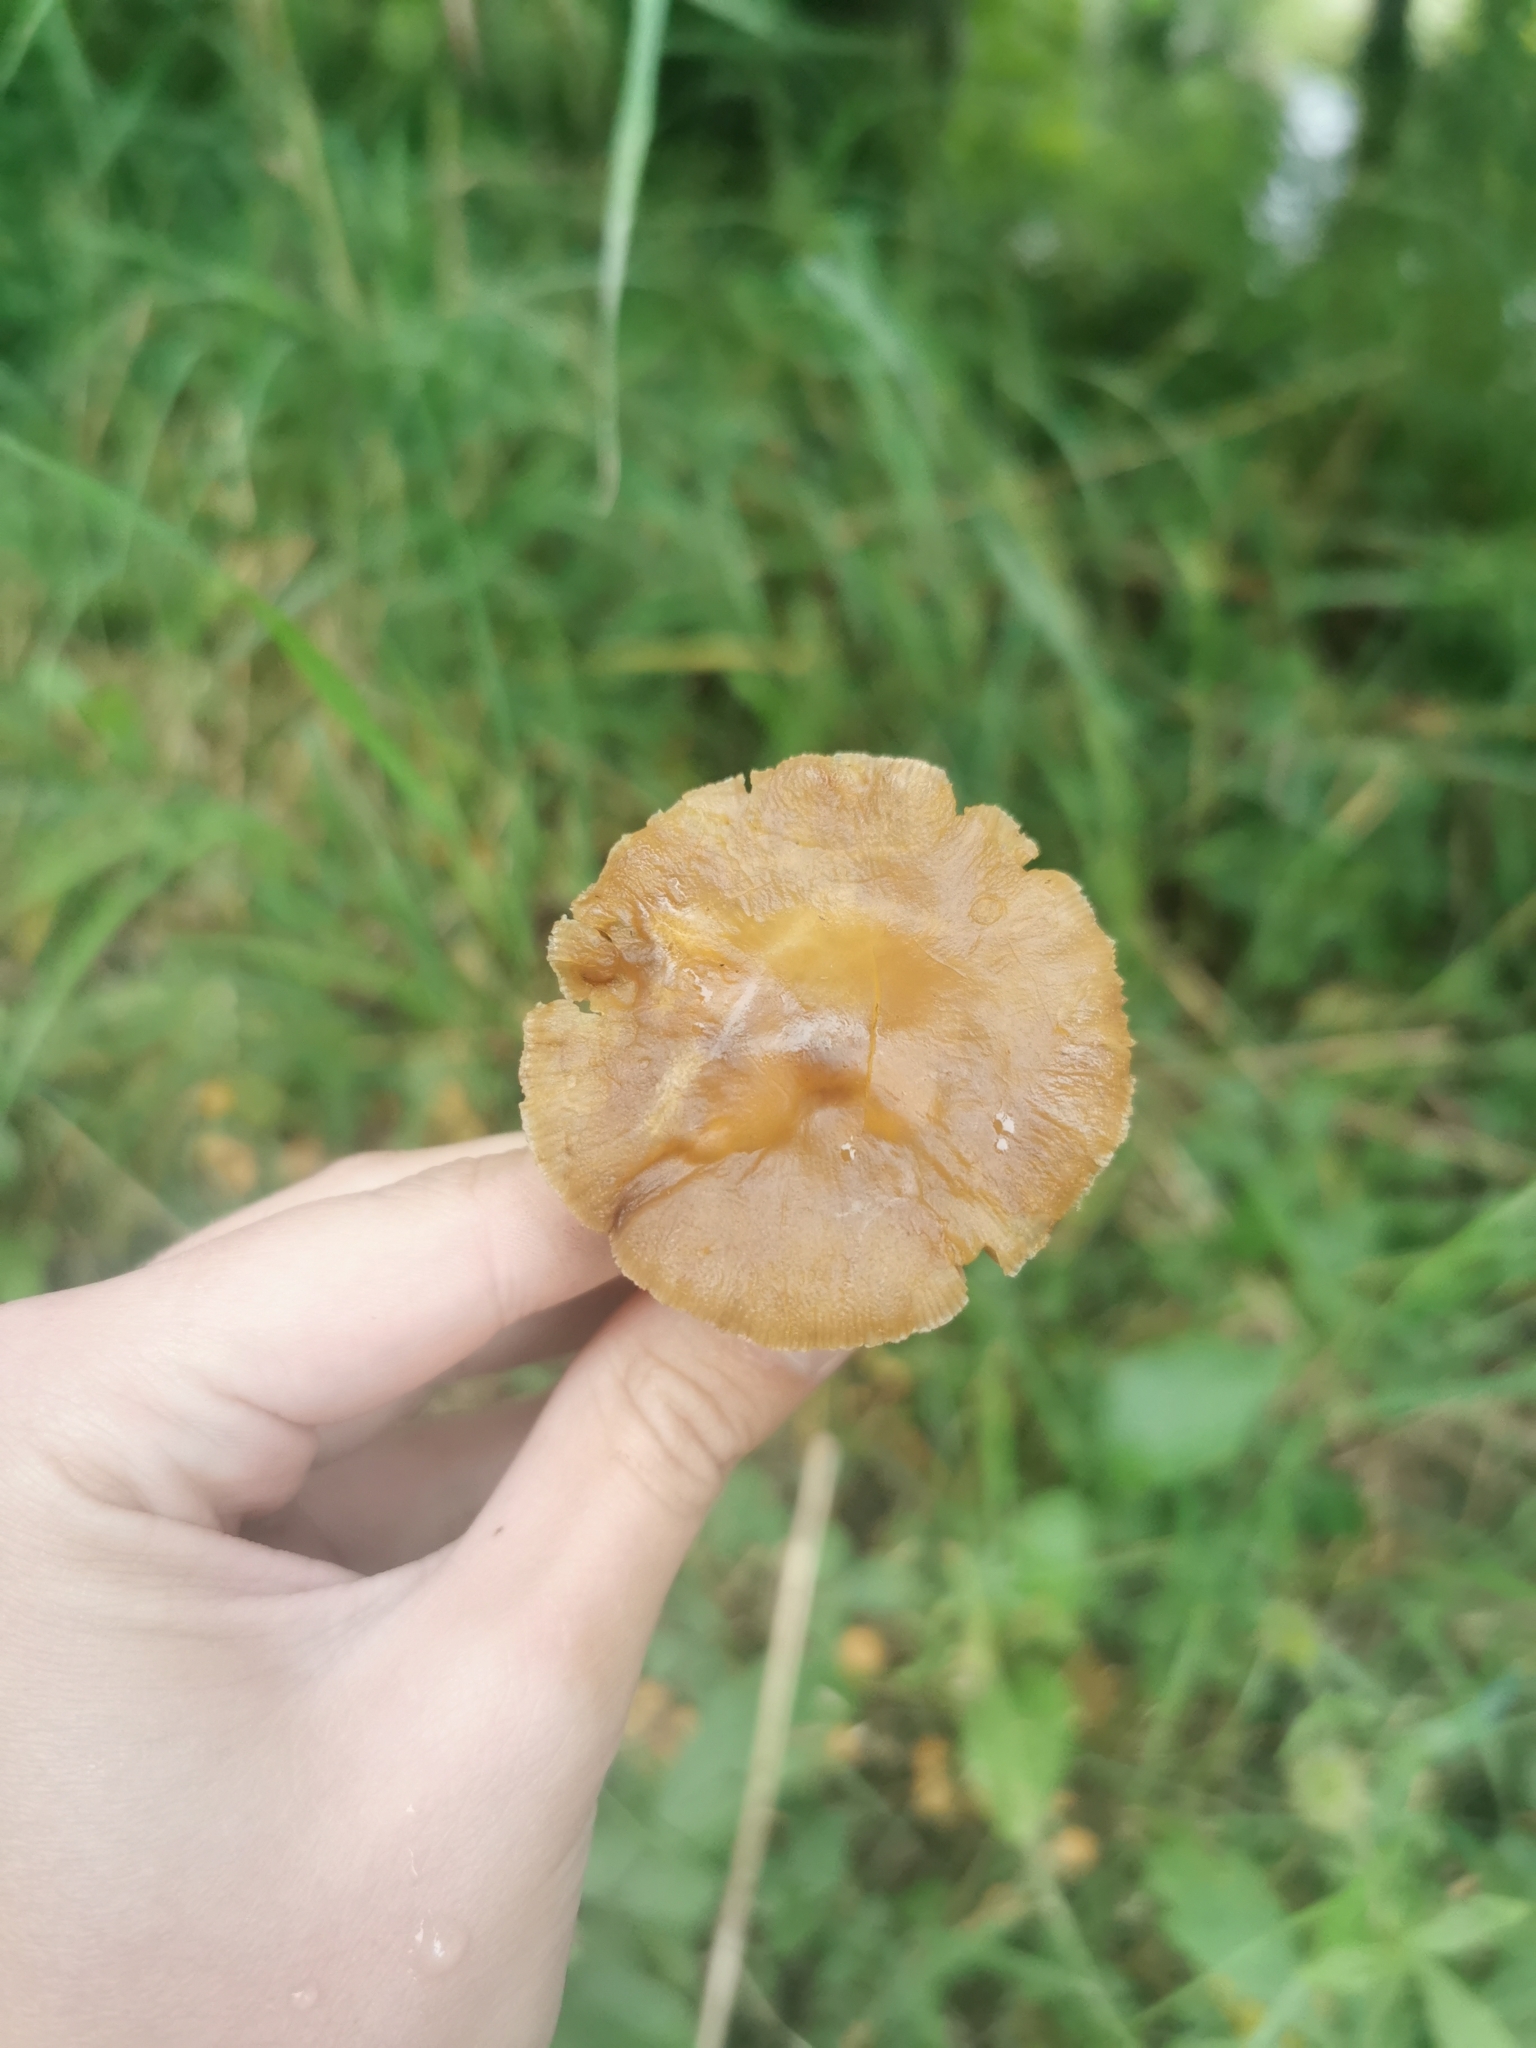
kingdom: Fungi
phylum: Basidiomycota
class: Agaricomycetes
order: Agaricales
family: Hydnangiaceae
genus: Laccaria
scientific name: Laccaria proxima
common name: Scurfy deceiver
